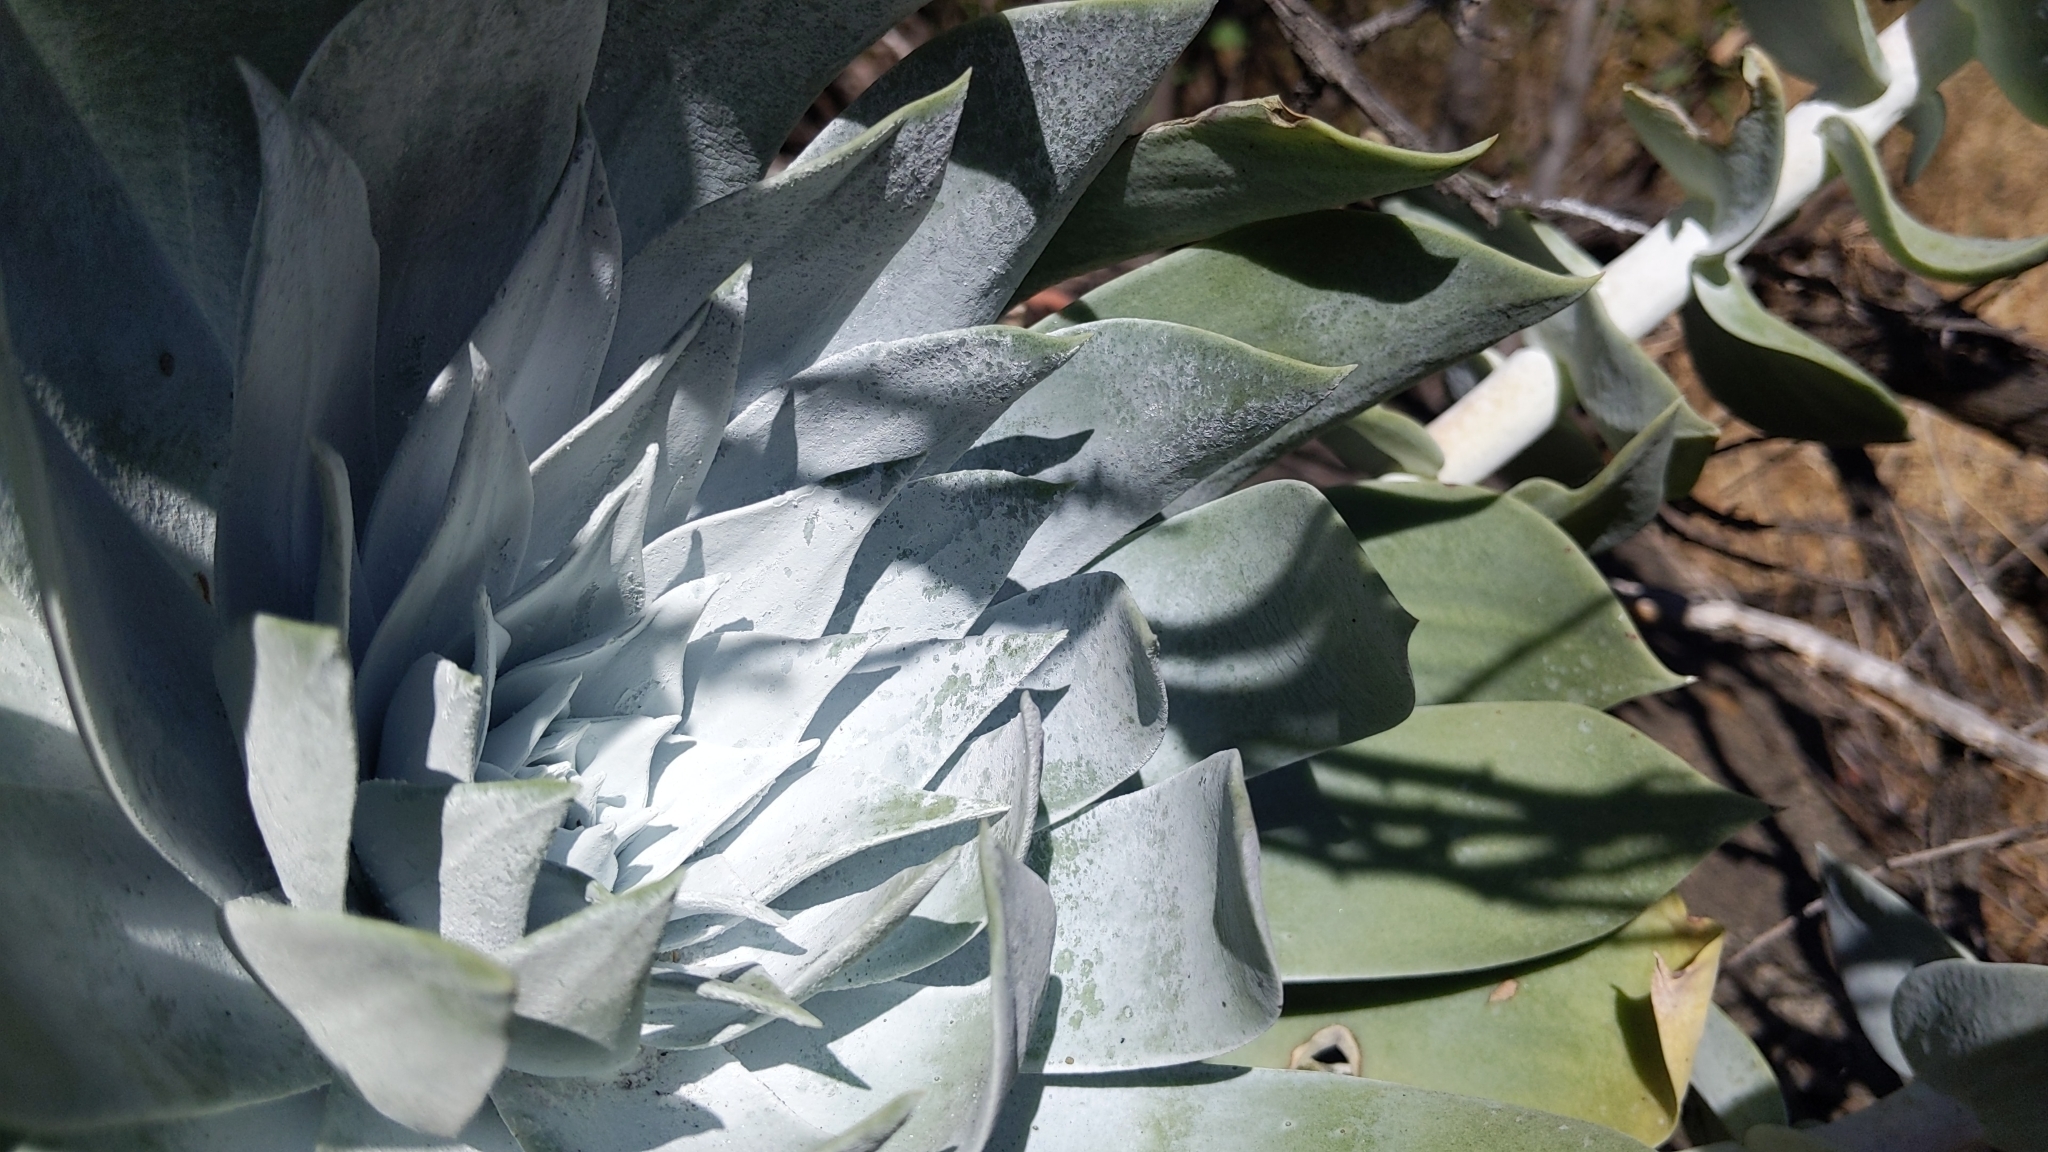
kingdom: Plantae
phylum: Tracheophyta
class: Magnoliopsida
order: Saxifragales
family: Crassulaceae
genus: Dudleya
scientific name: Dudleya pulverulenta
